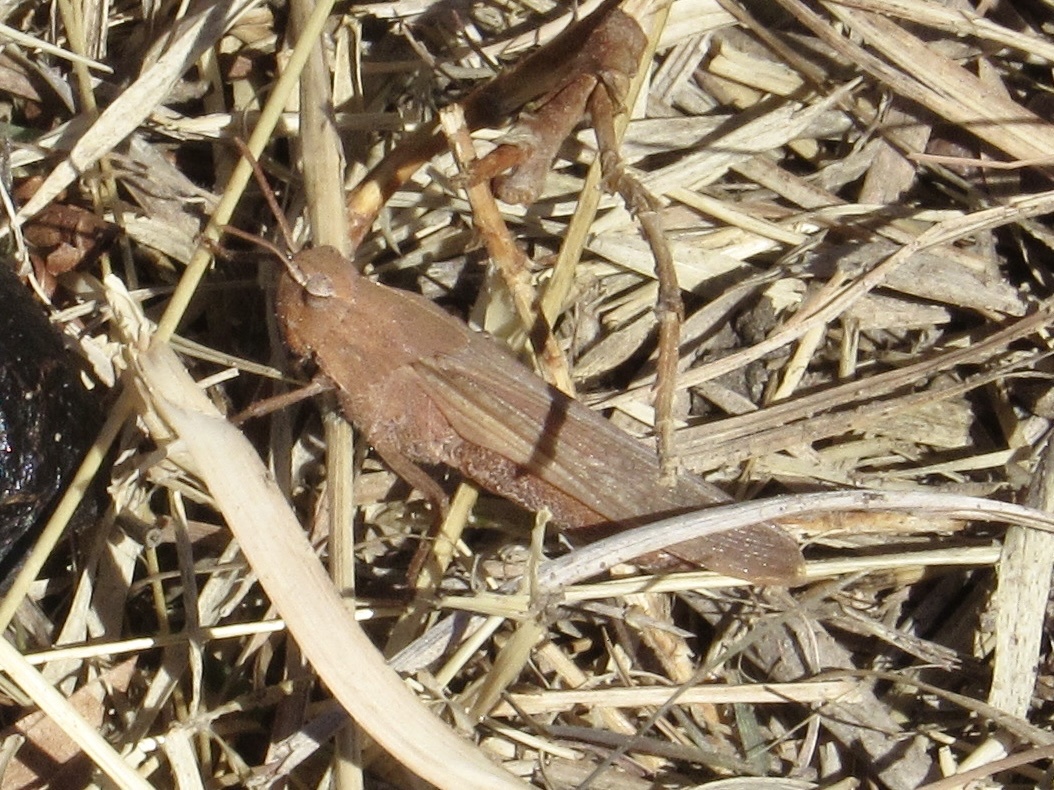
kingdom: Animalia
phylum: Arthropoda
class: Insecta
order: Orthoptera
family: Acrididae
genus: Chortophaga
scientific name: Chortophaga viridifasciata
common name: Green-striped grasshopper
